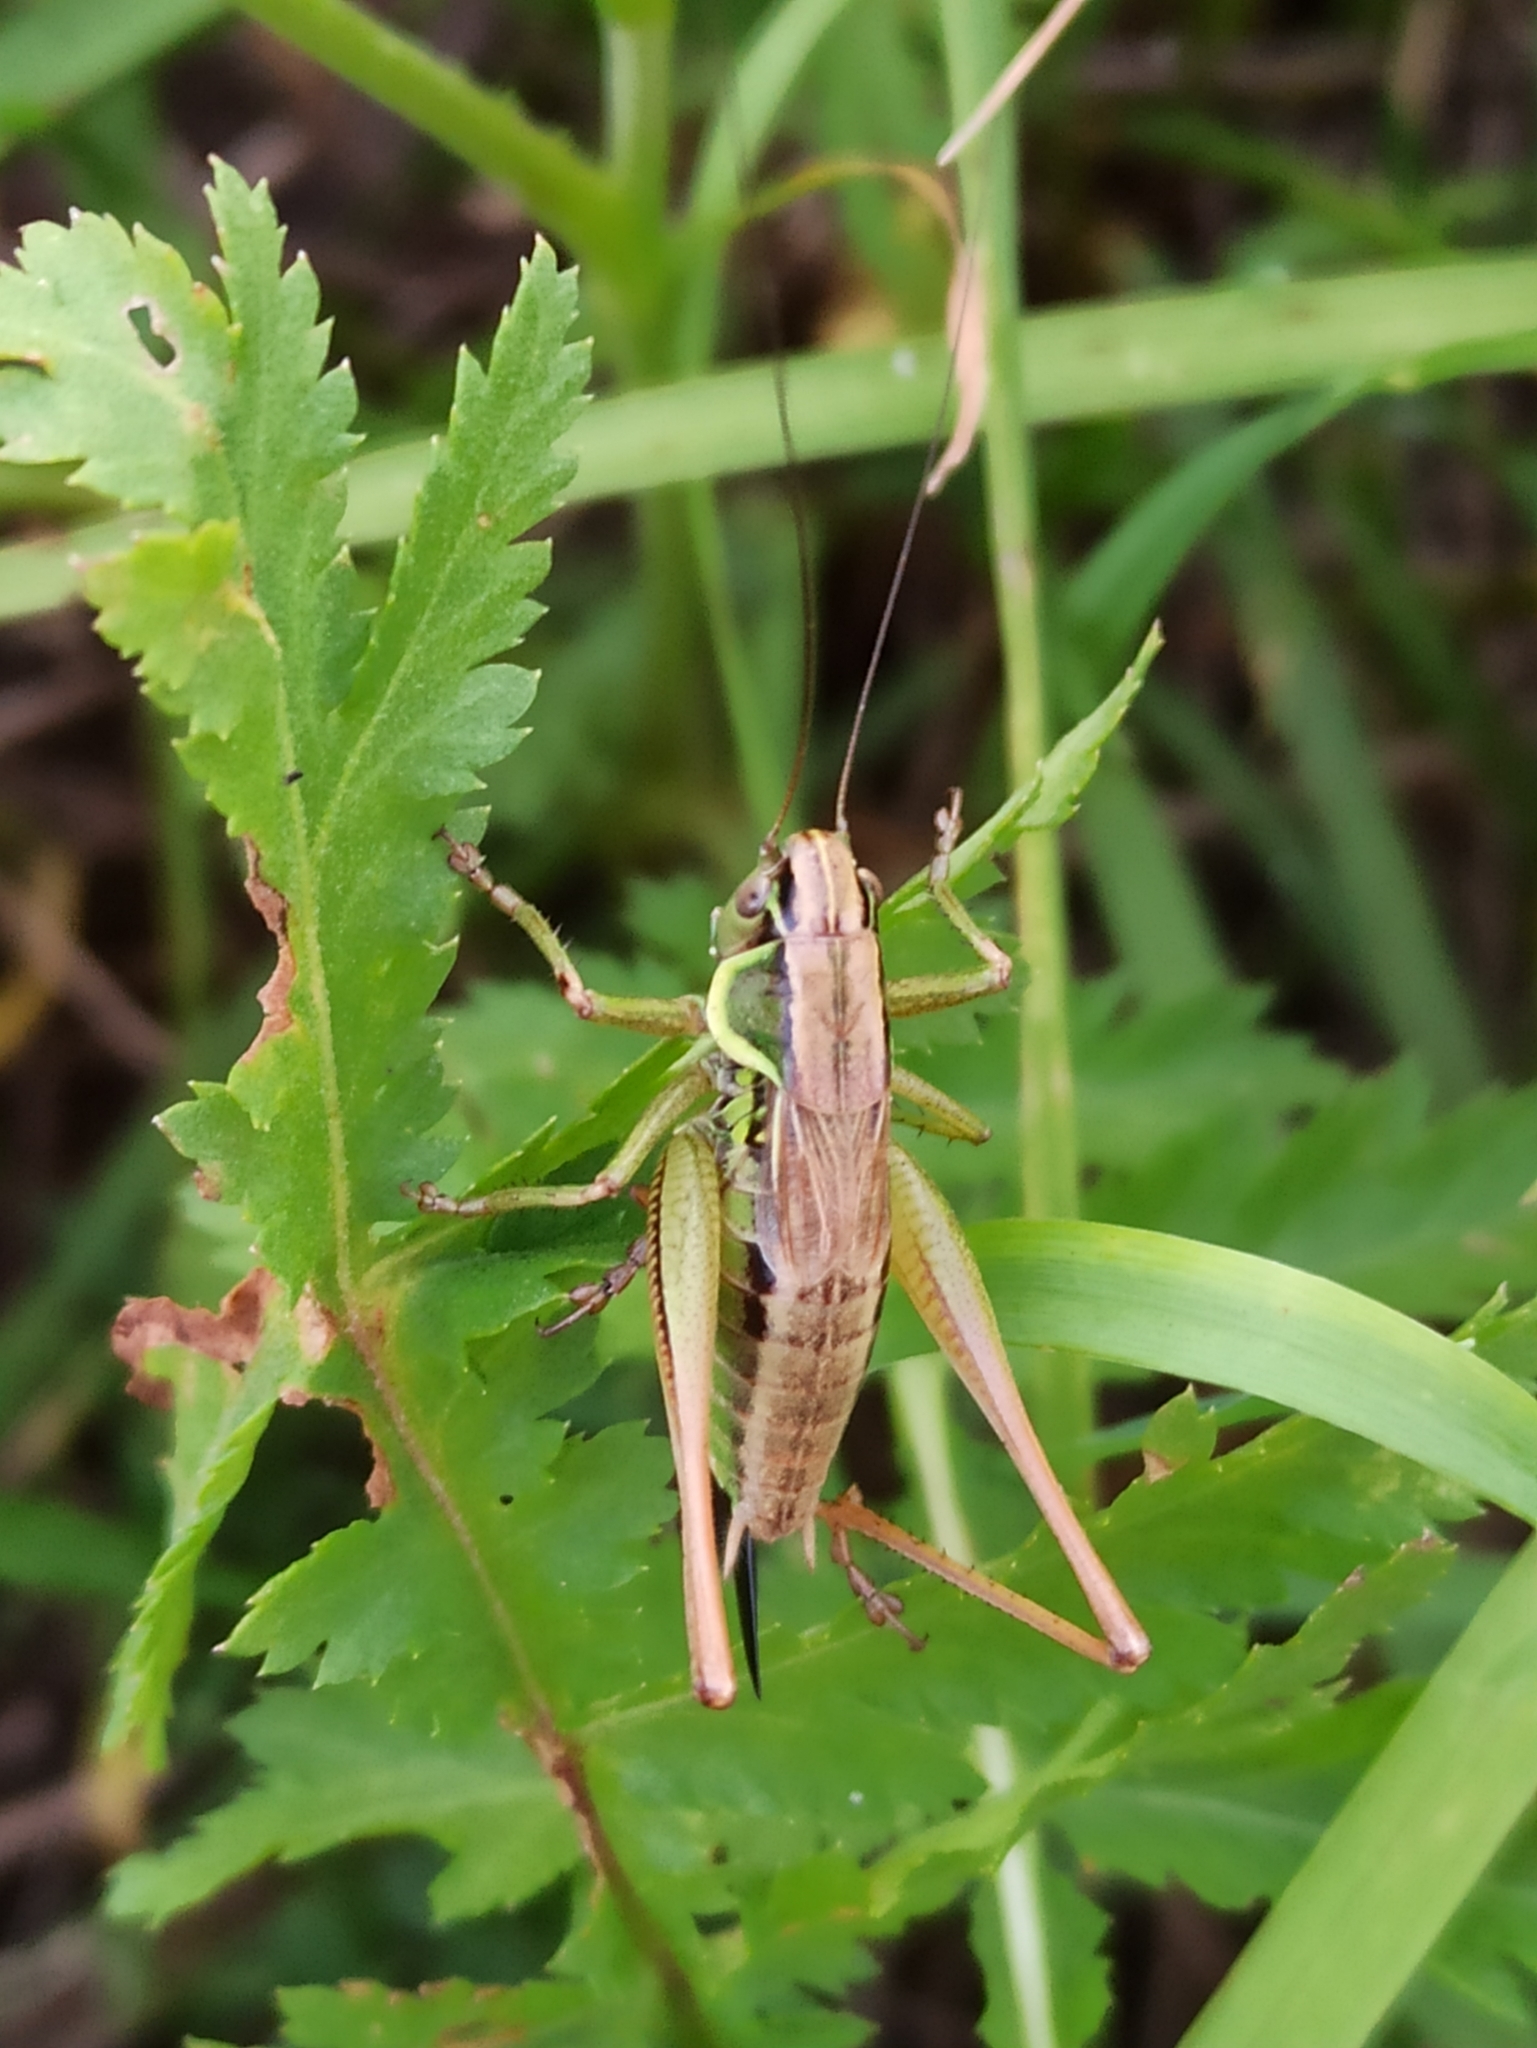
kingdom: Animalia
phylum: Arthropoda
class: Insecta
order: Orthoptera
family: Tettigoniidae
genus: Roeseliana
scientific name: Roeseliana roeselii
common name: Roesel's bush cricket
